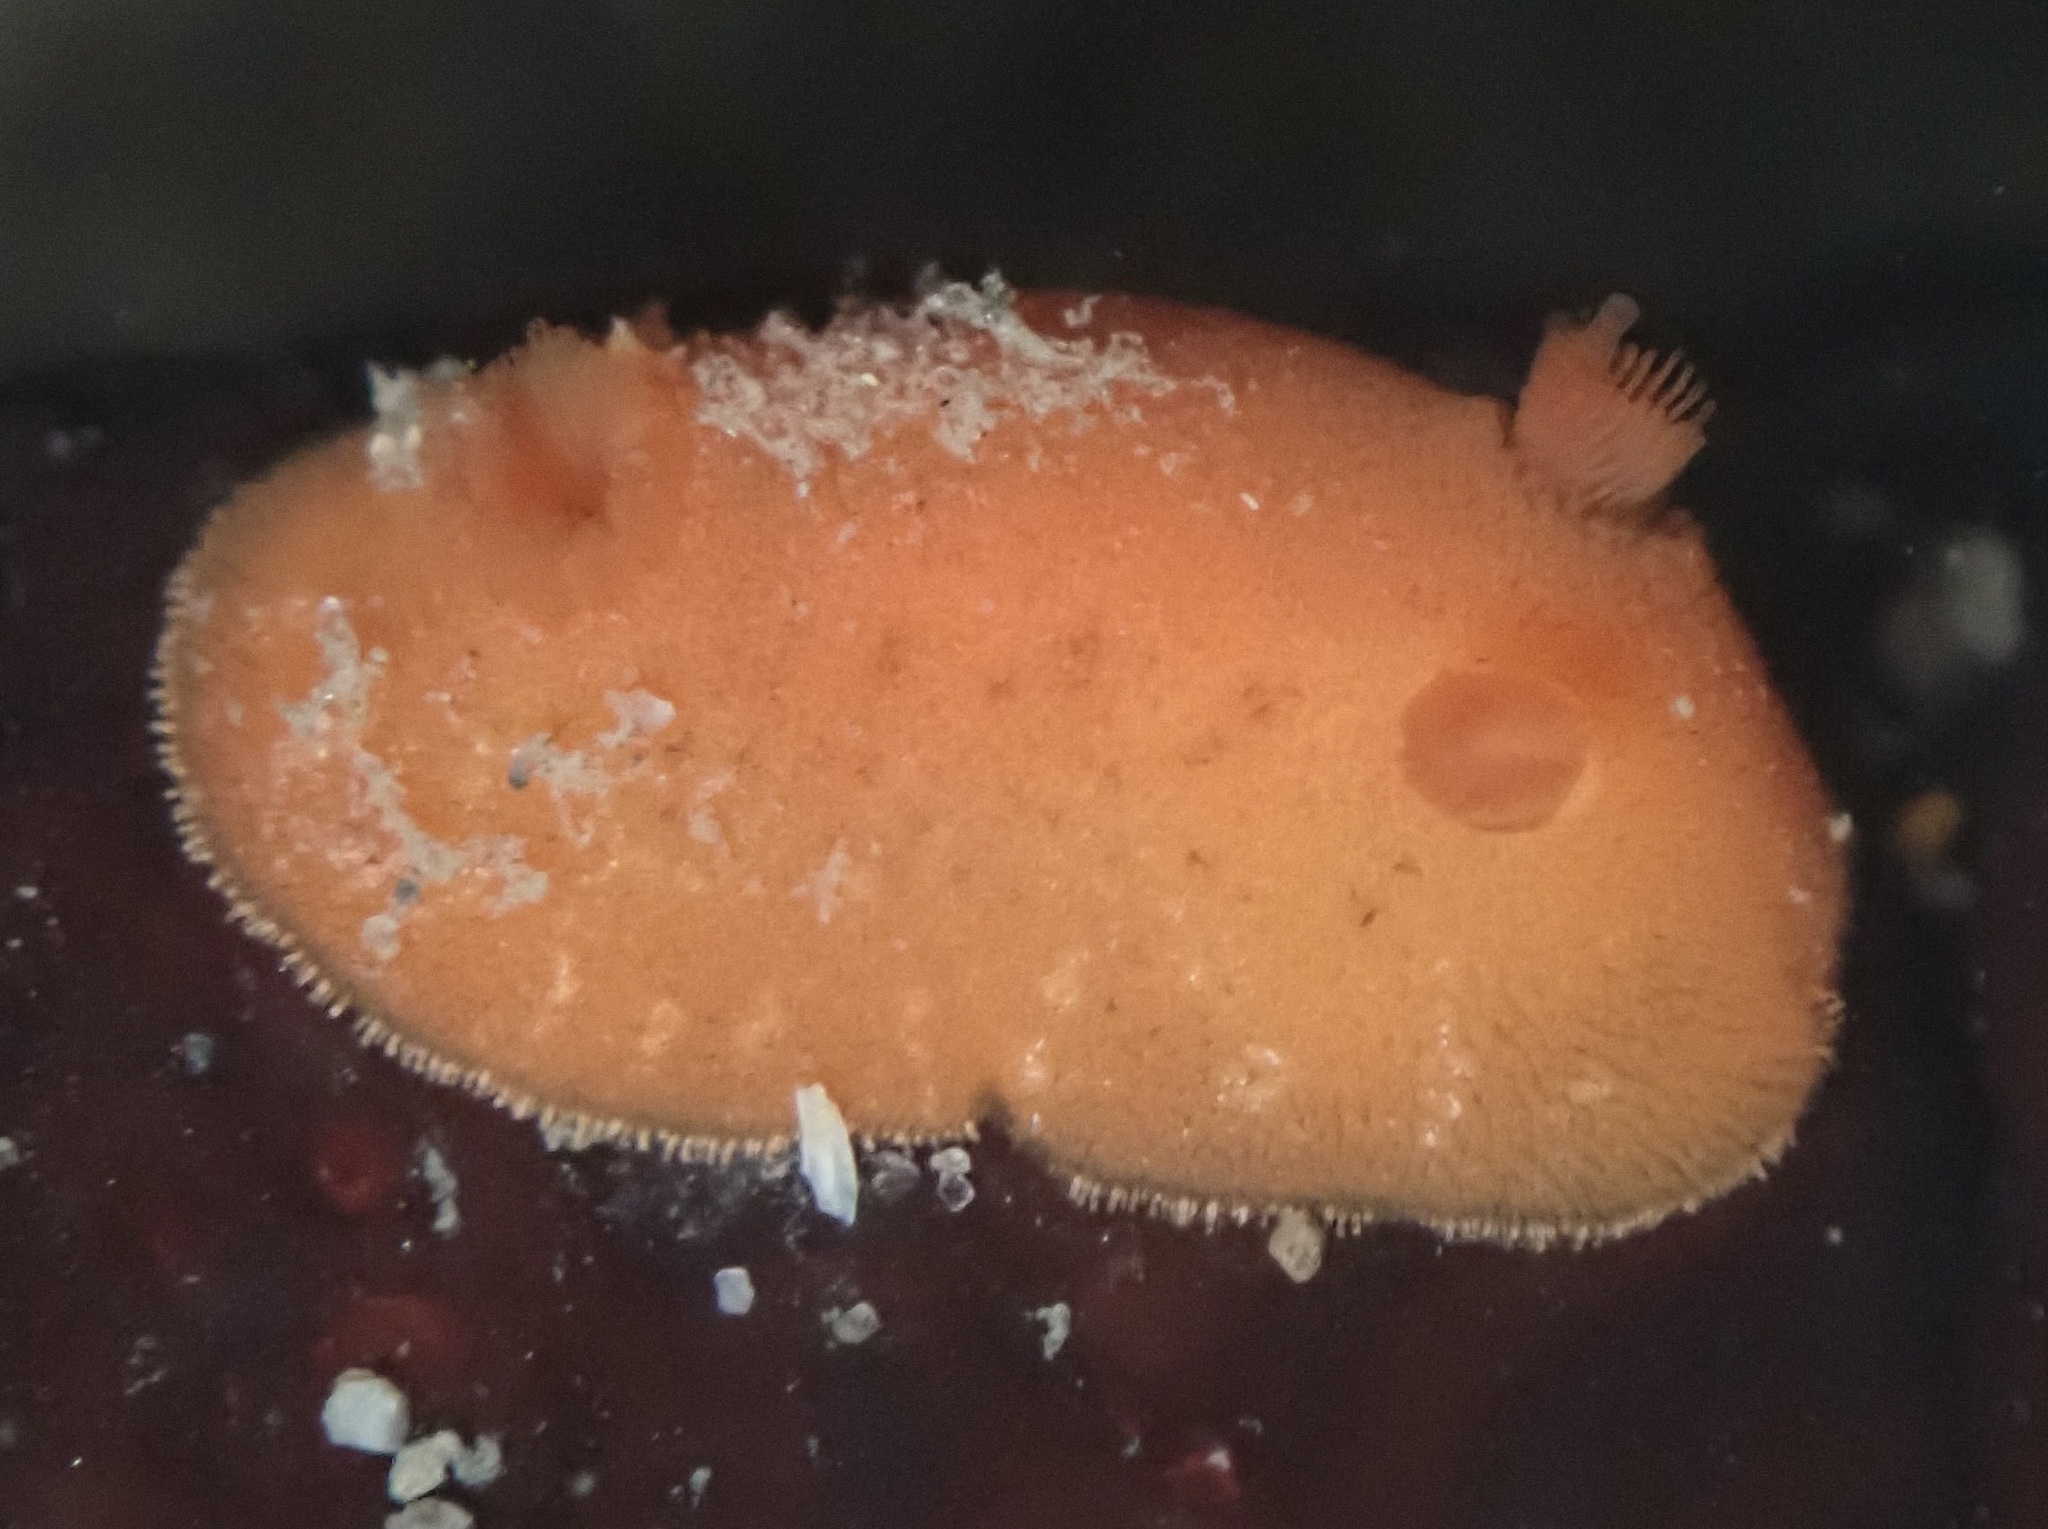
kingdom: Animalia
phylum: Mollusca
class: Gastropoda
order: Nudibranchia
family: Discodorididae
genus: Rostanga
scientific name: Rostanga pulchra
